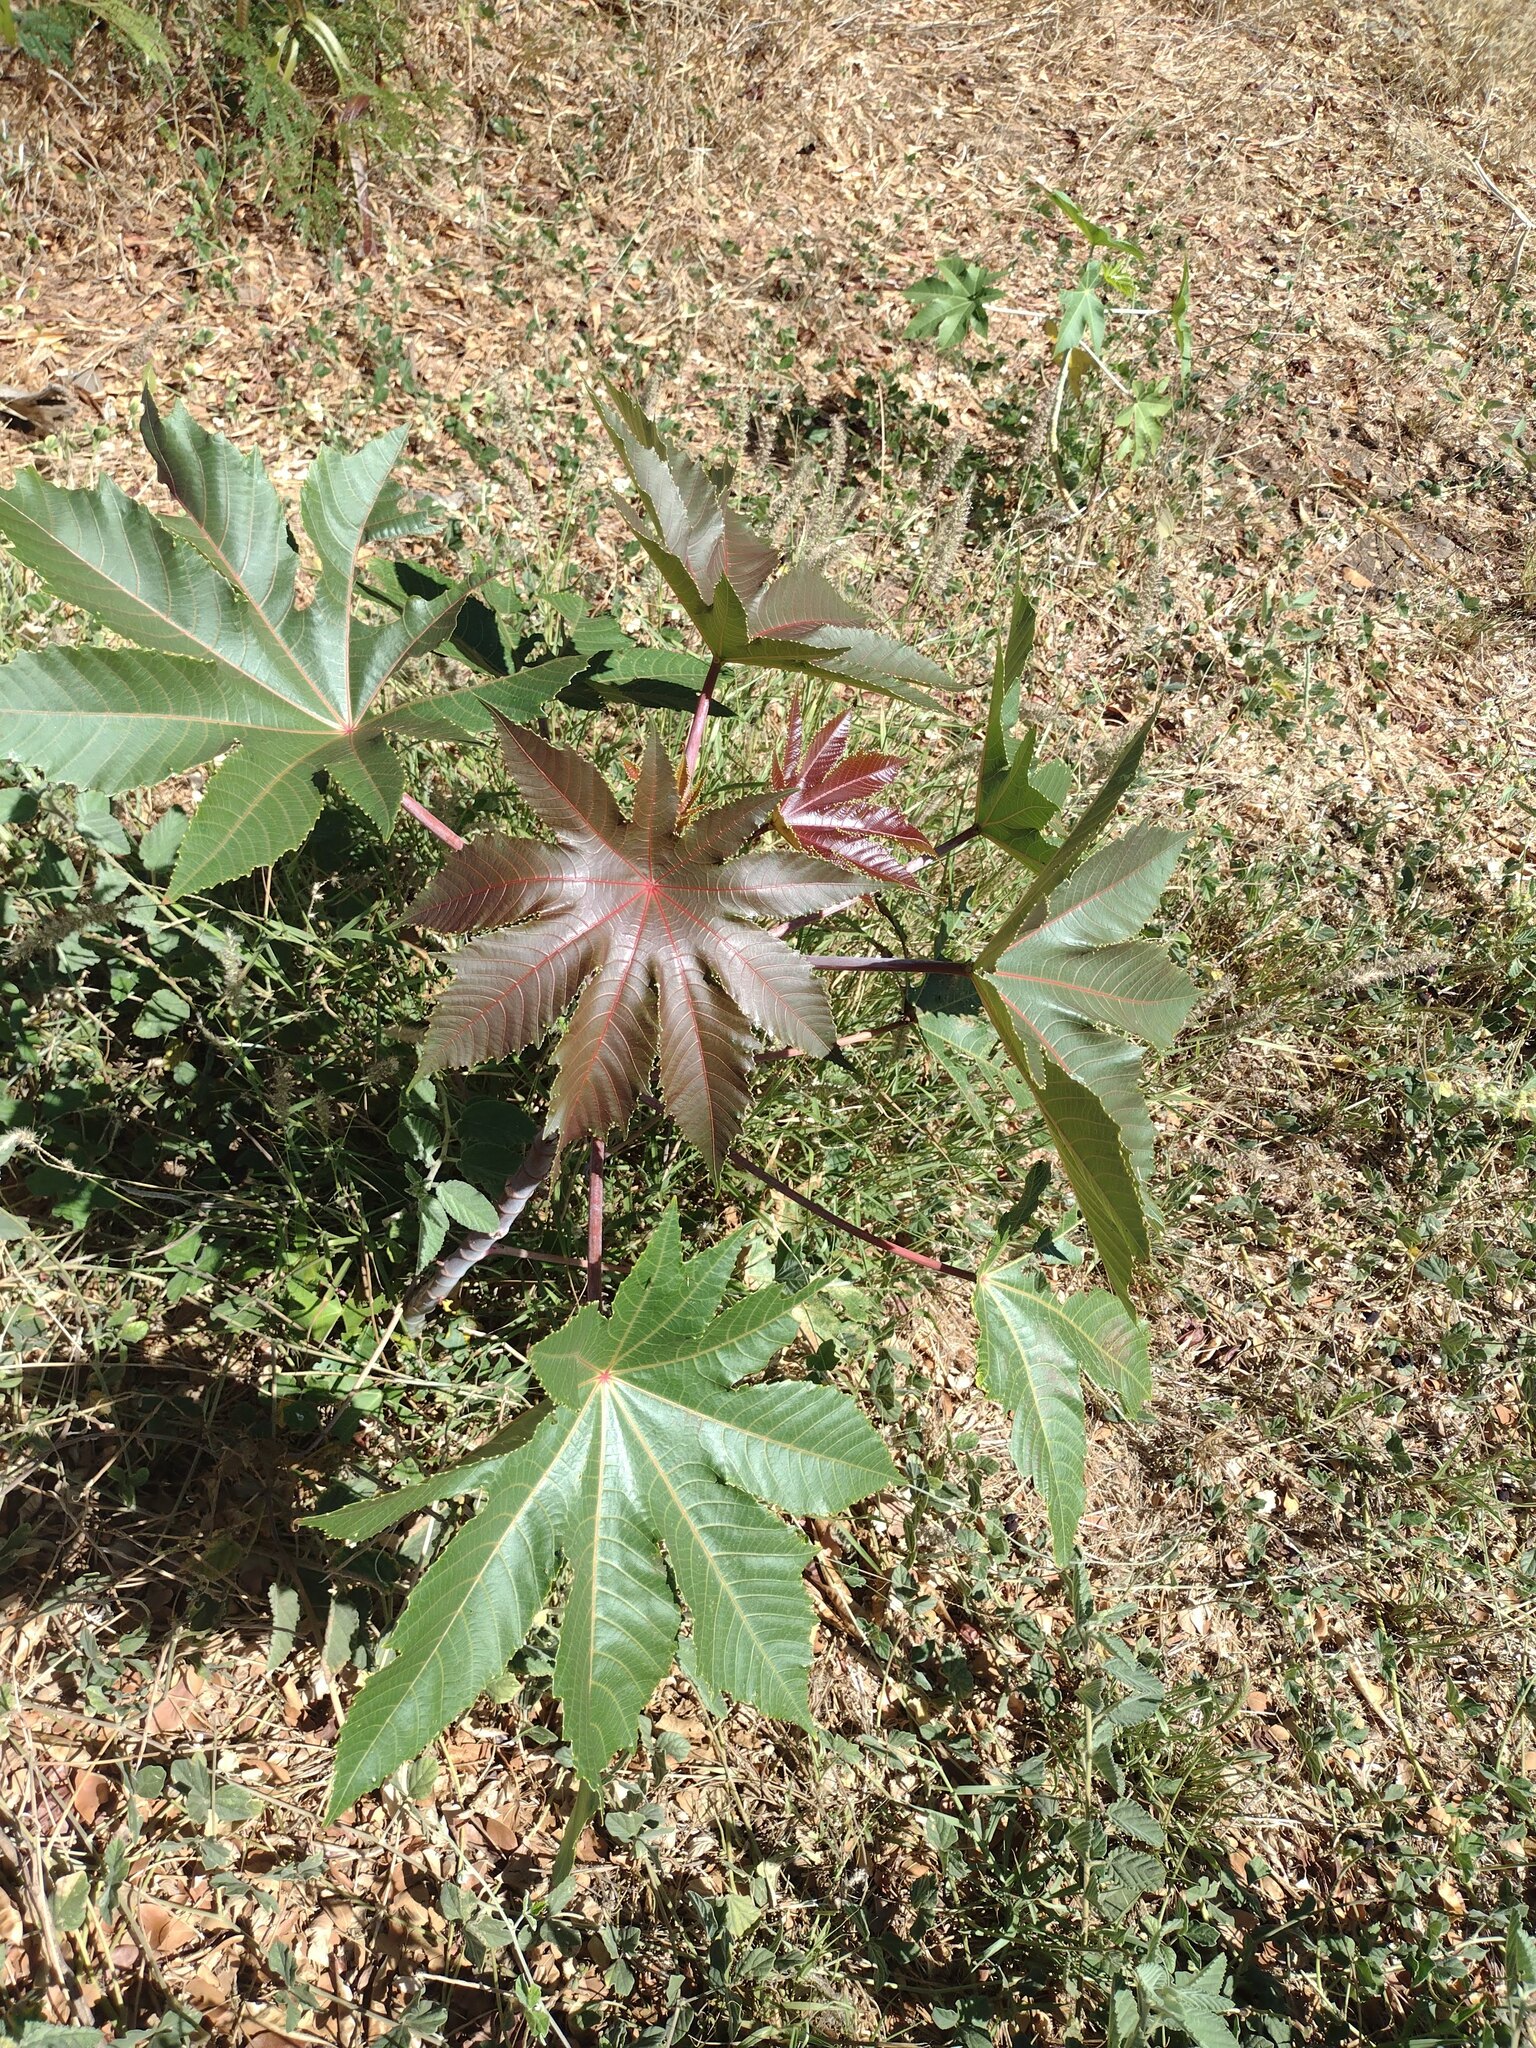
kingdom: Plantae
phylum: Tracheophyta
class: Magnoliopsida
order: Malpighiales
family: Euphorbiaceae
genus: Ricinus
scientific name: Ricinus communis
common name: Castor-oil-plant
